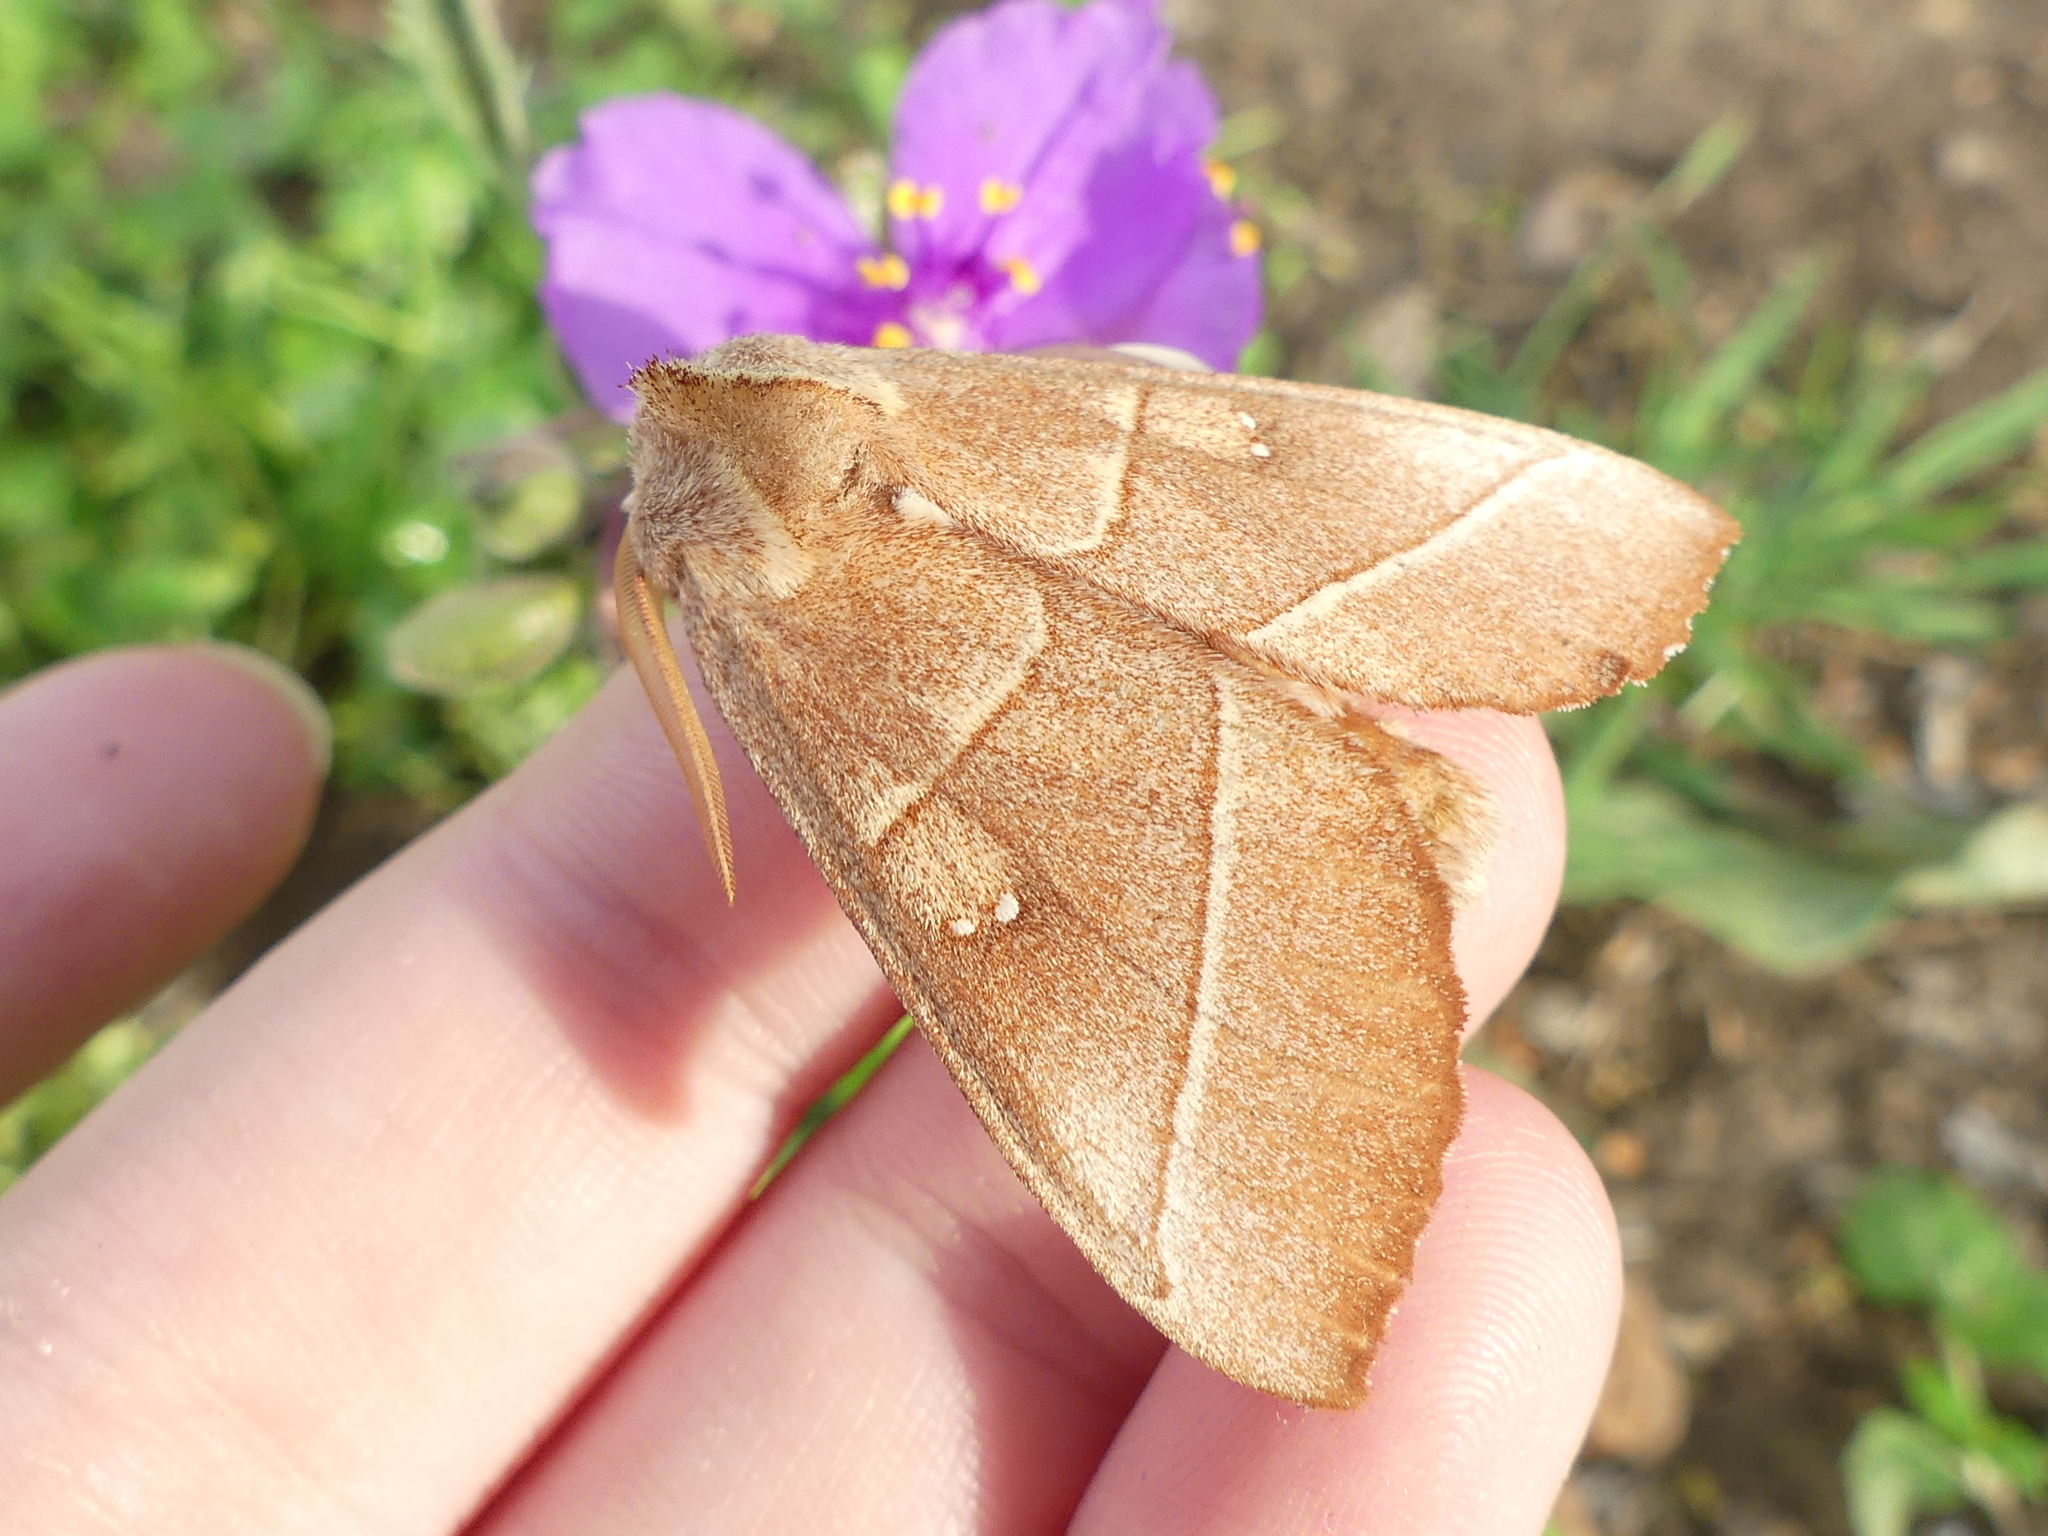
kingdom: Animalia
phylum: Arthropoda
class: Insecta
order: Lepidoptera
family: Notodontidae
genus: Nadata
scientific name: Nadata gibbosa
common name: White-dotted prominent
